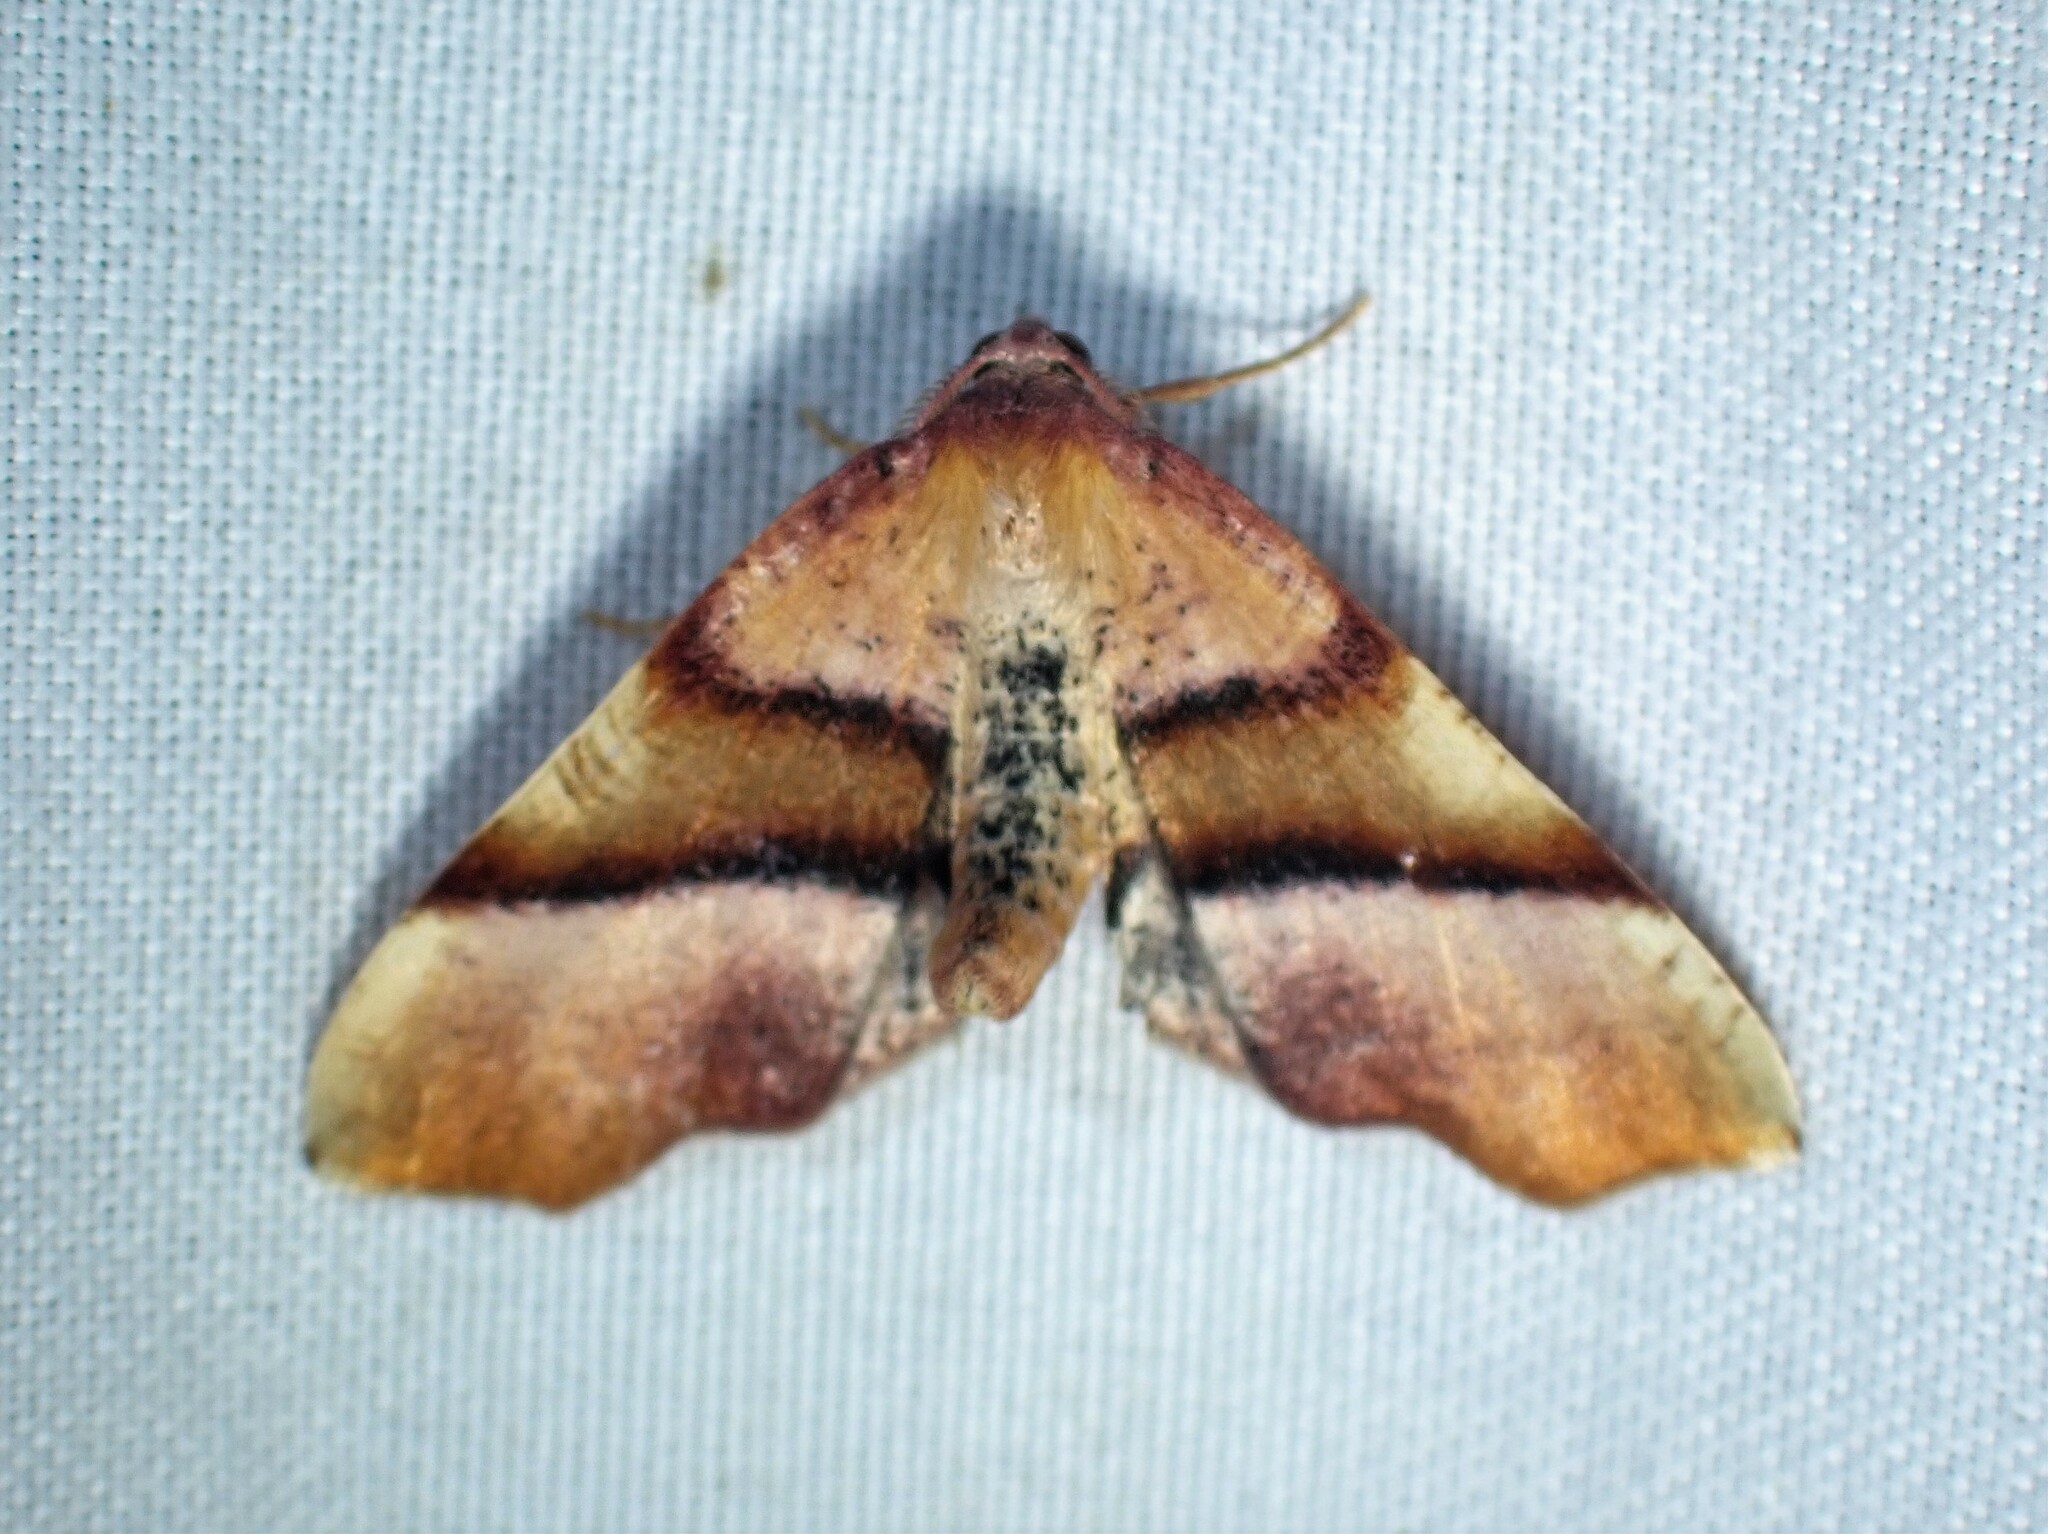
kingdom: Animalia
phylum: Arthropoda
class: Insecta
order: Lepidoptera
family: Geometridae
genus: Plagodis
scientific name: Plagodis phlogosaria
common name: Straight-lined plagodis
